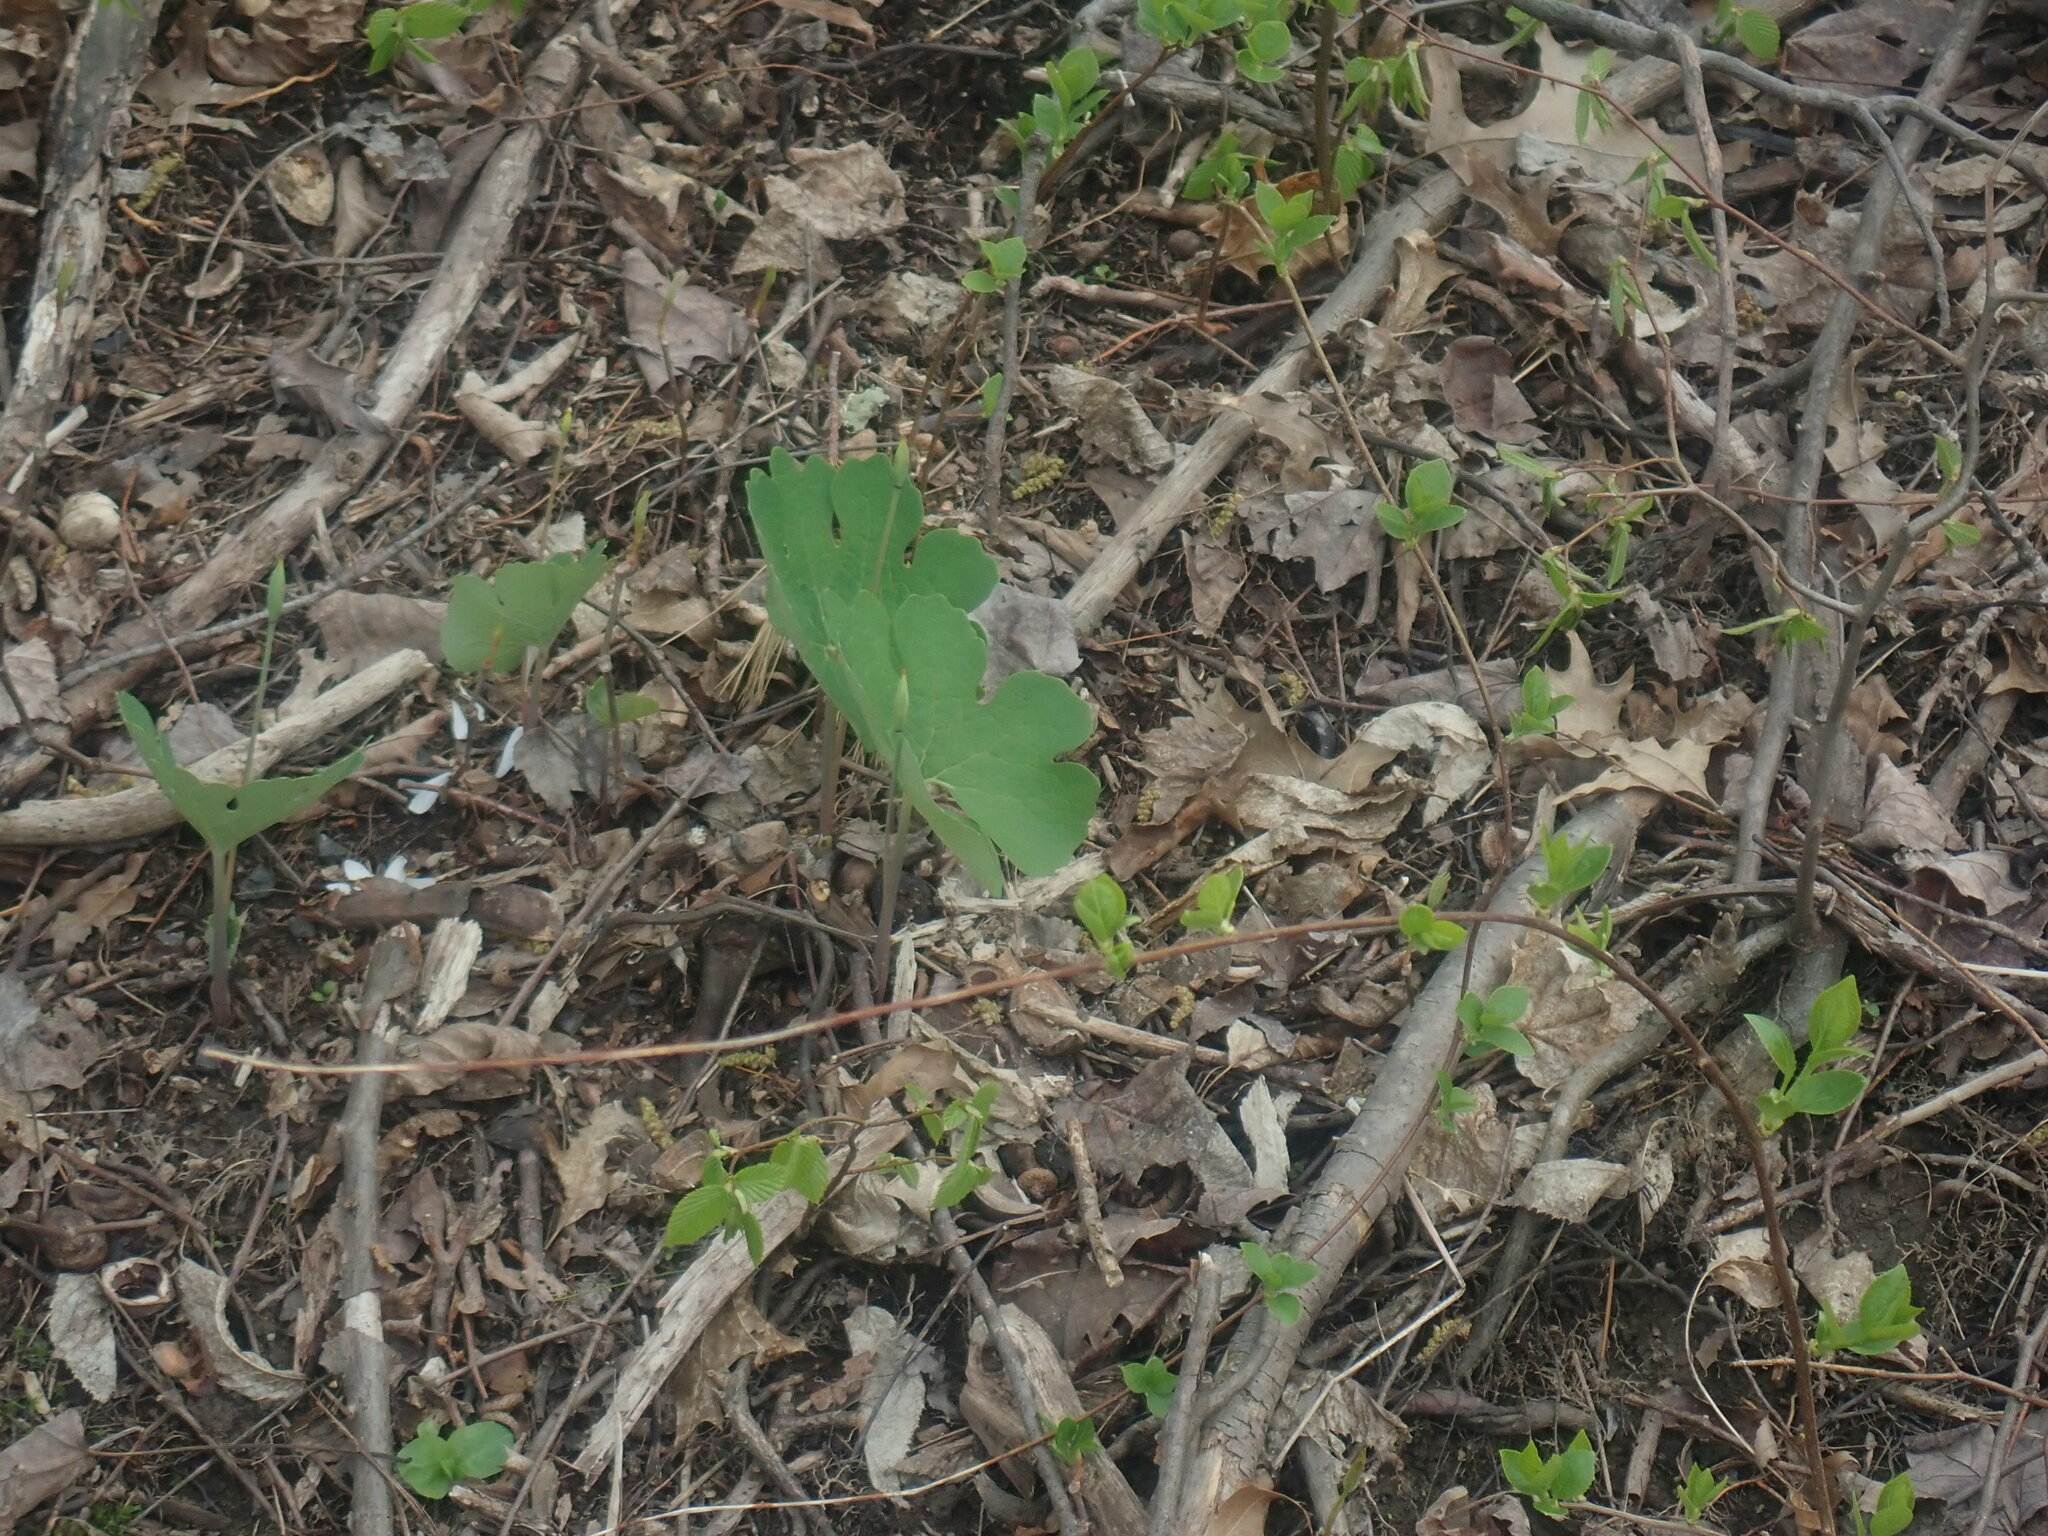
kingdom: Plantae
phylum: Tracheophyta
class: Magnoliopsida
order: Ranunculales
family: Papaveraceae
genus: Sanguinaria
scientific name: Sanguinaria canadensis
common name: Bloodroot
